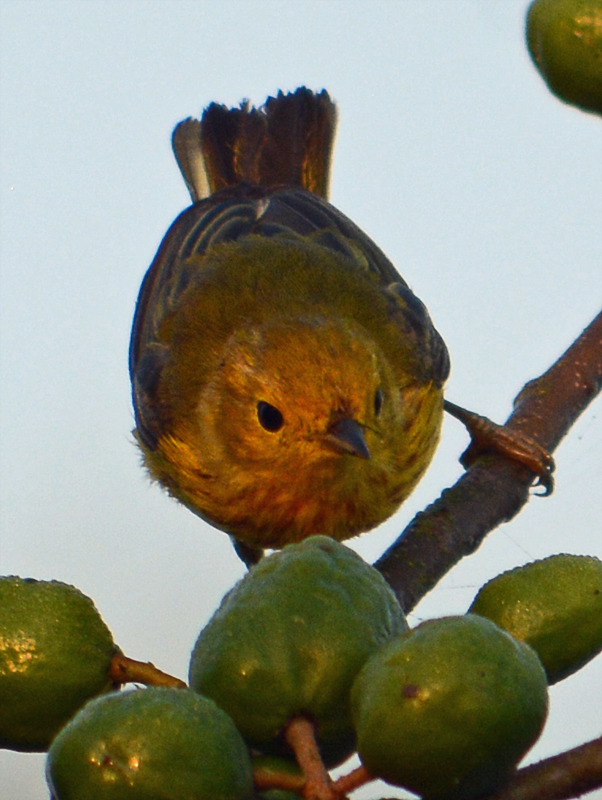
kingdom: Animalia
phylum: Chordata
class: Aves
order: Passeriformes
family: Parulidae
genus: Setophaga
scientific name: Setophaga petechia
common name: Yellow warbler
